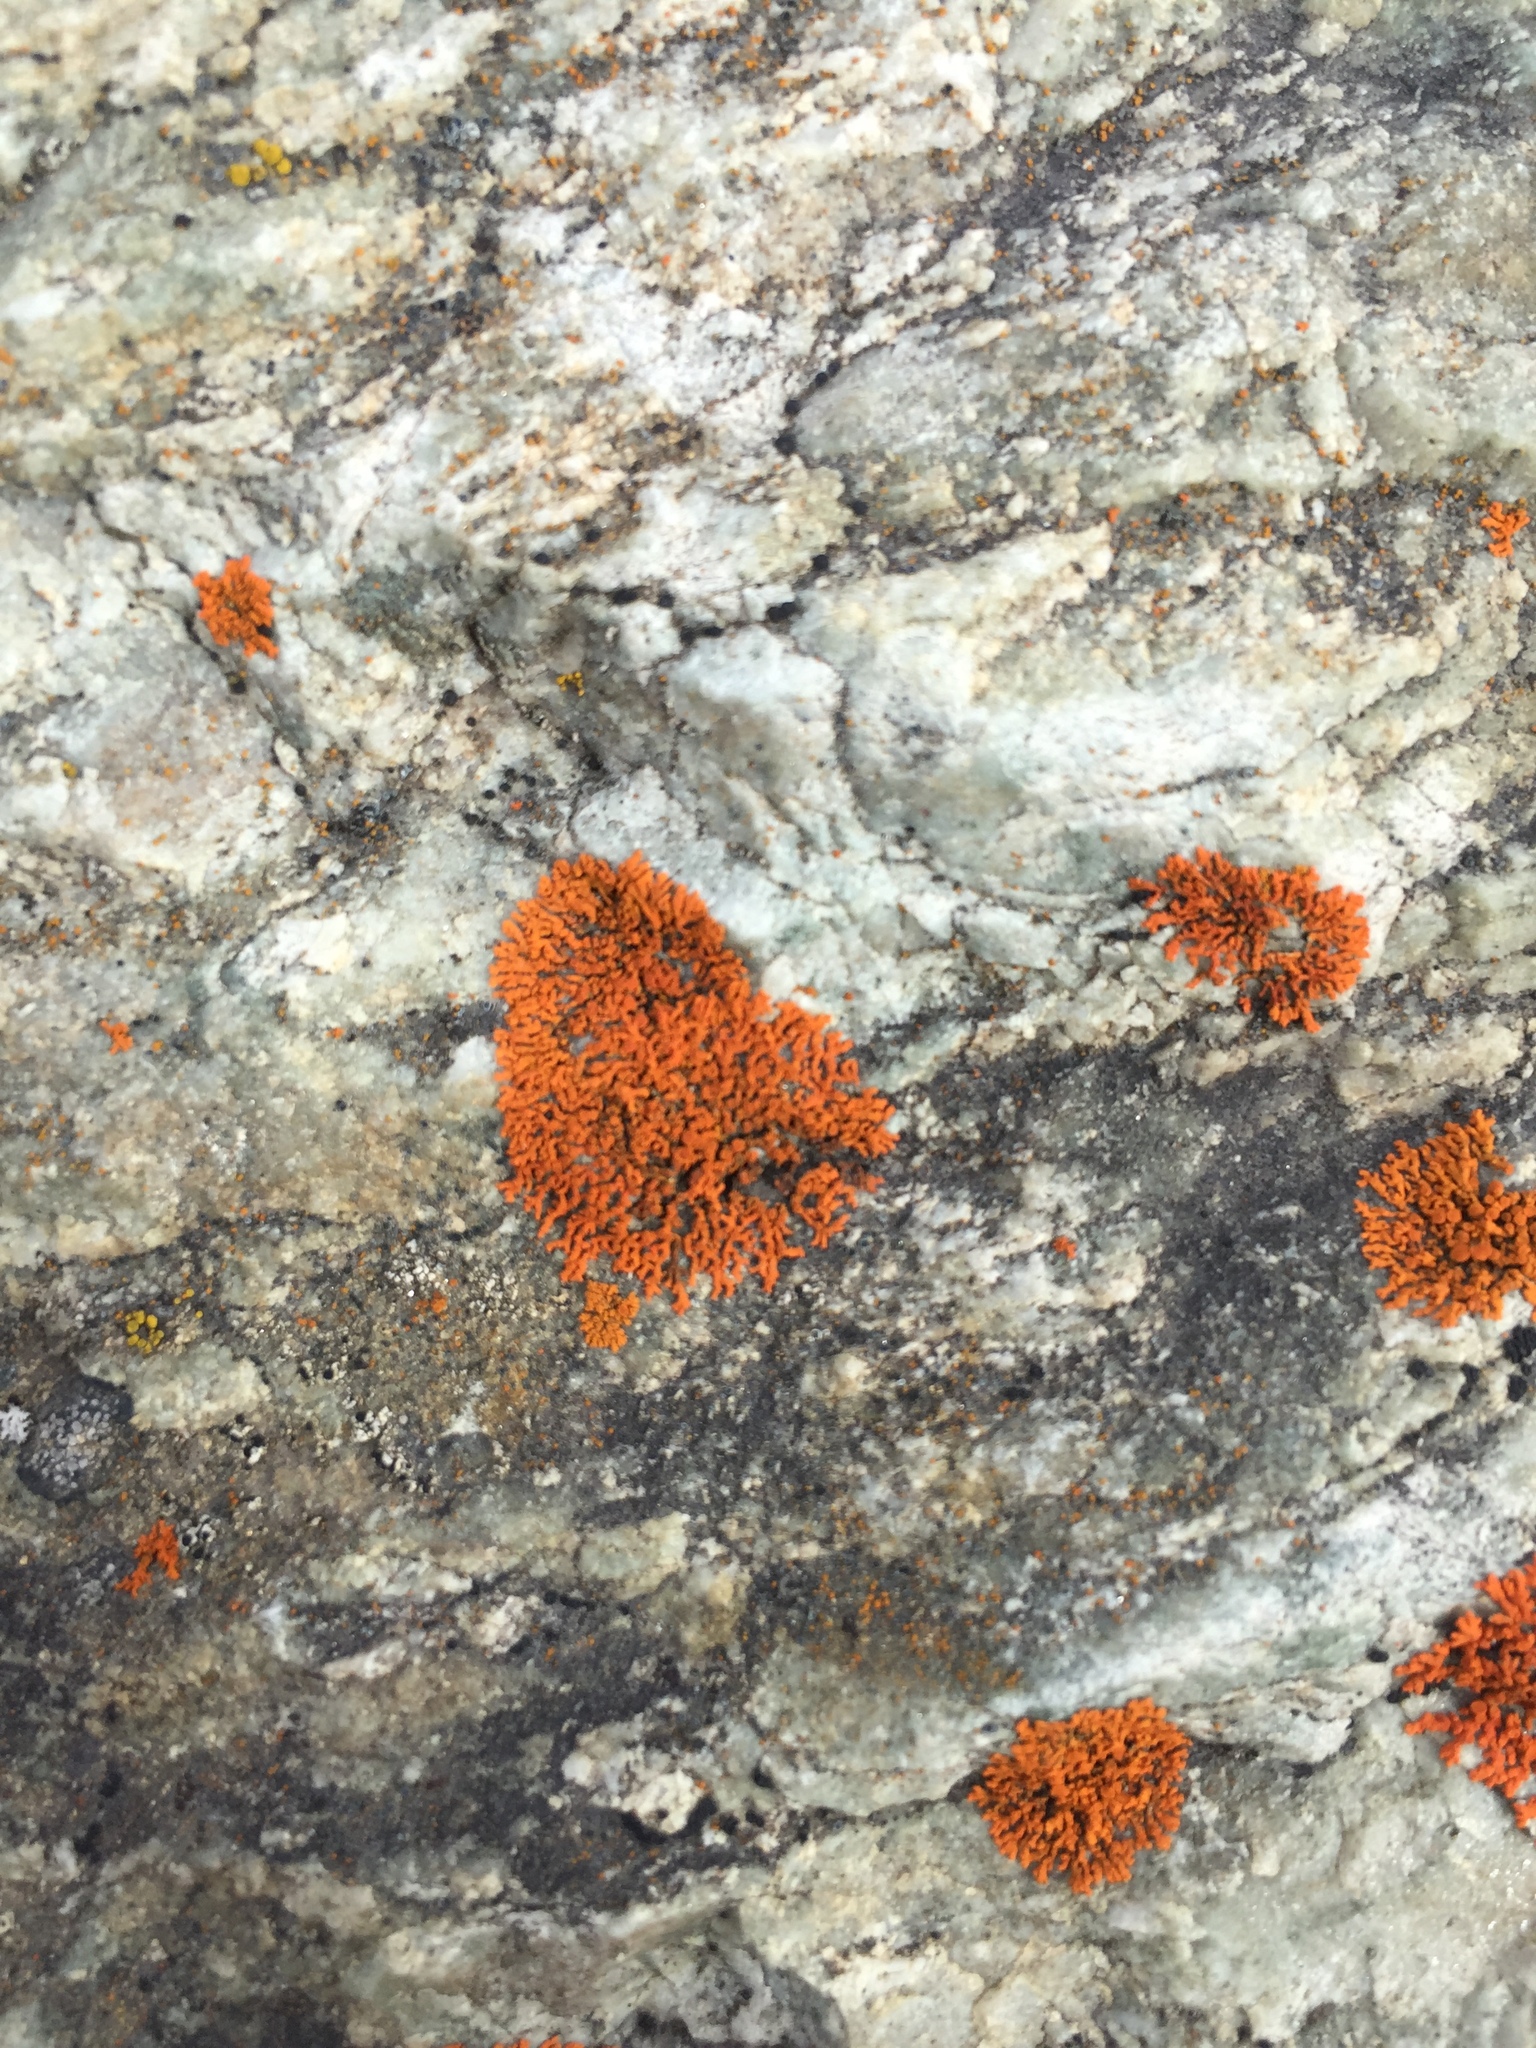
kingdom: Fungi
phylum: Ascomycota
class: Lecanoromycetes
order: Teloschistales
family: Teloschistaceae
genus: Xanthoria
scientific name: Xanthoria elegans
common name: Elegant sunburst lichen
